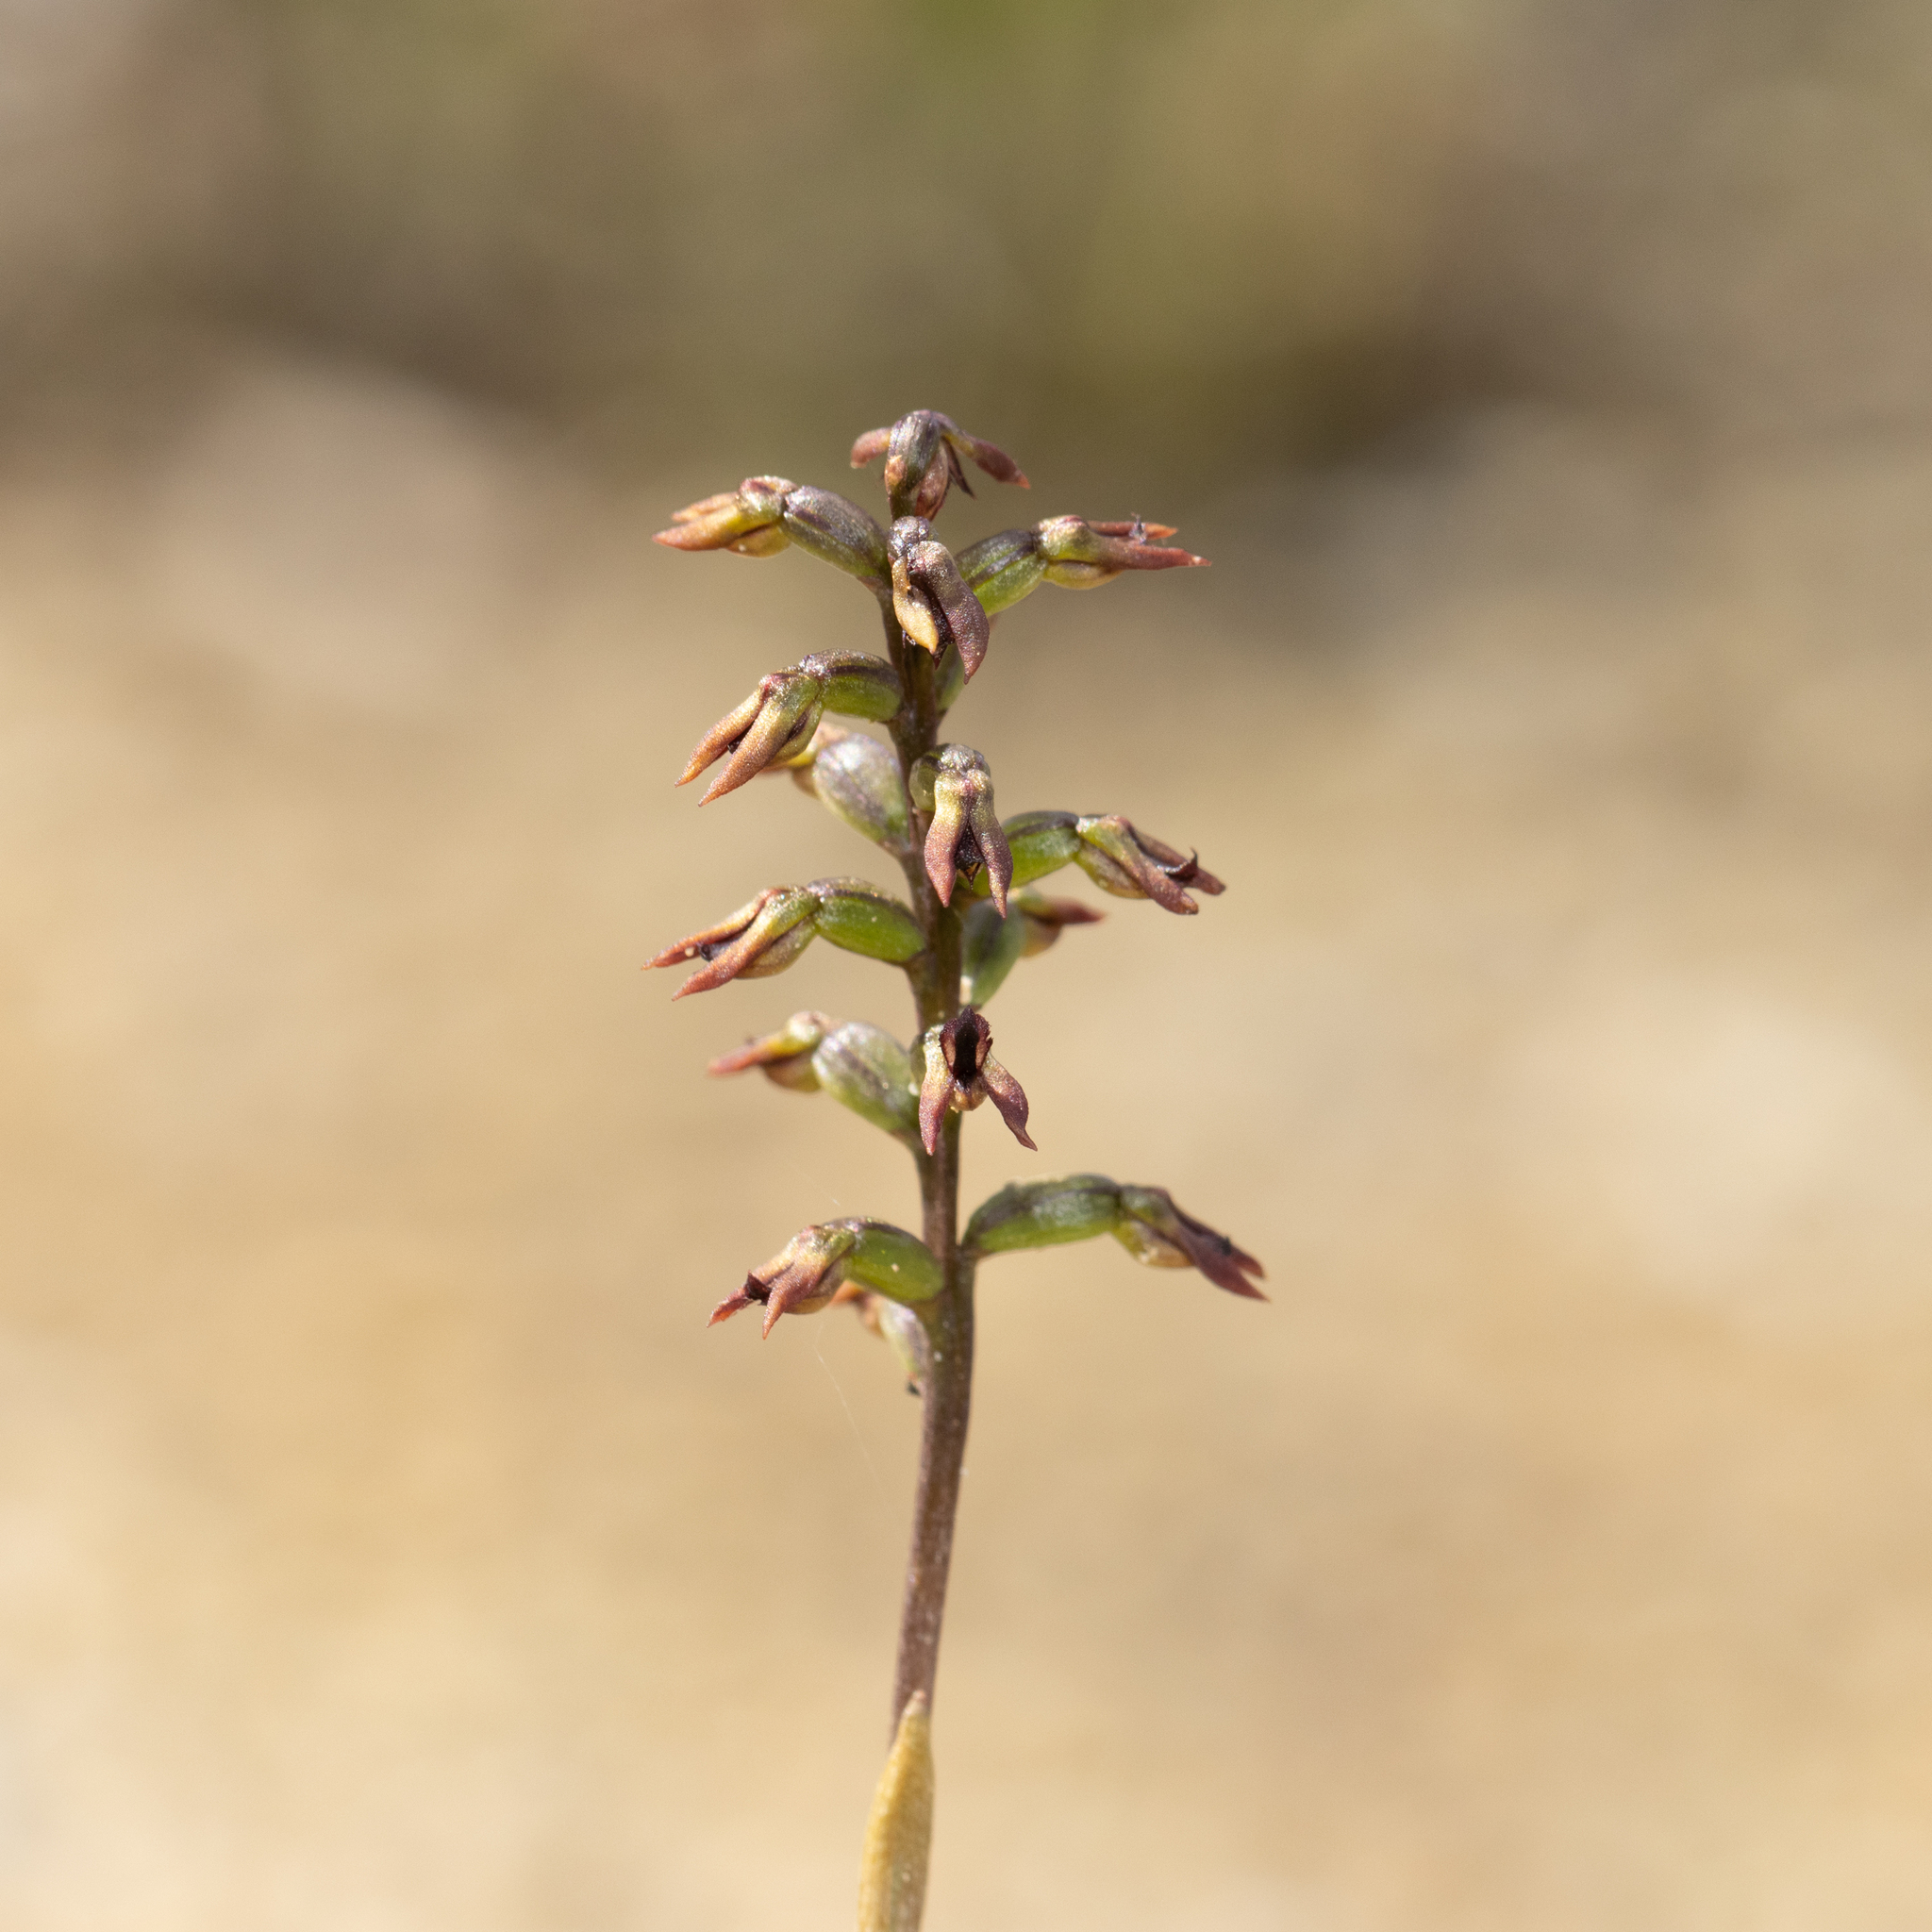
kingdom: Plantae
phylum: Tracheophyta
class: Liliopsida
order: Asparagales
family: Orchidaceae
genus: Genoplesium
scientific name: Genoplesium rufum
